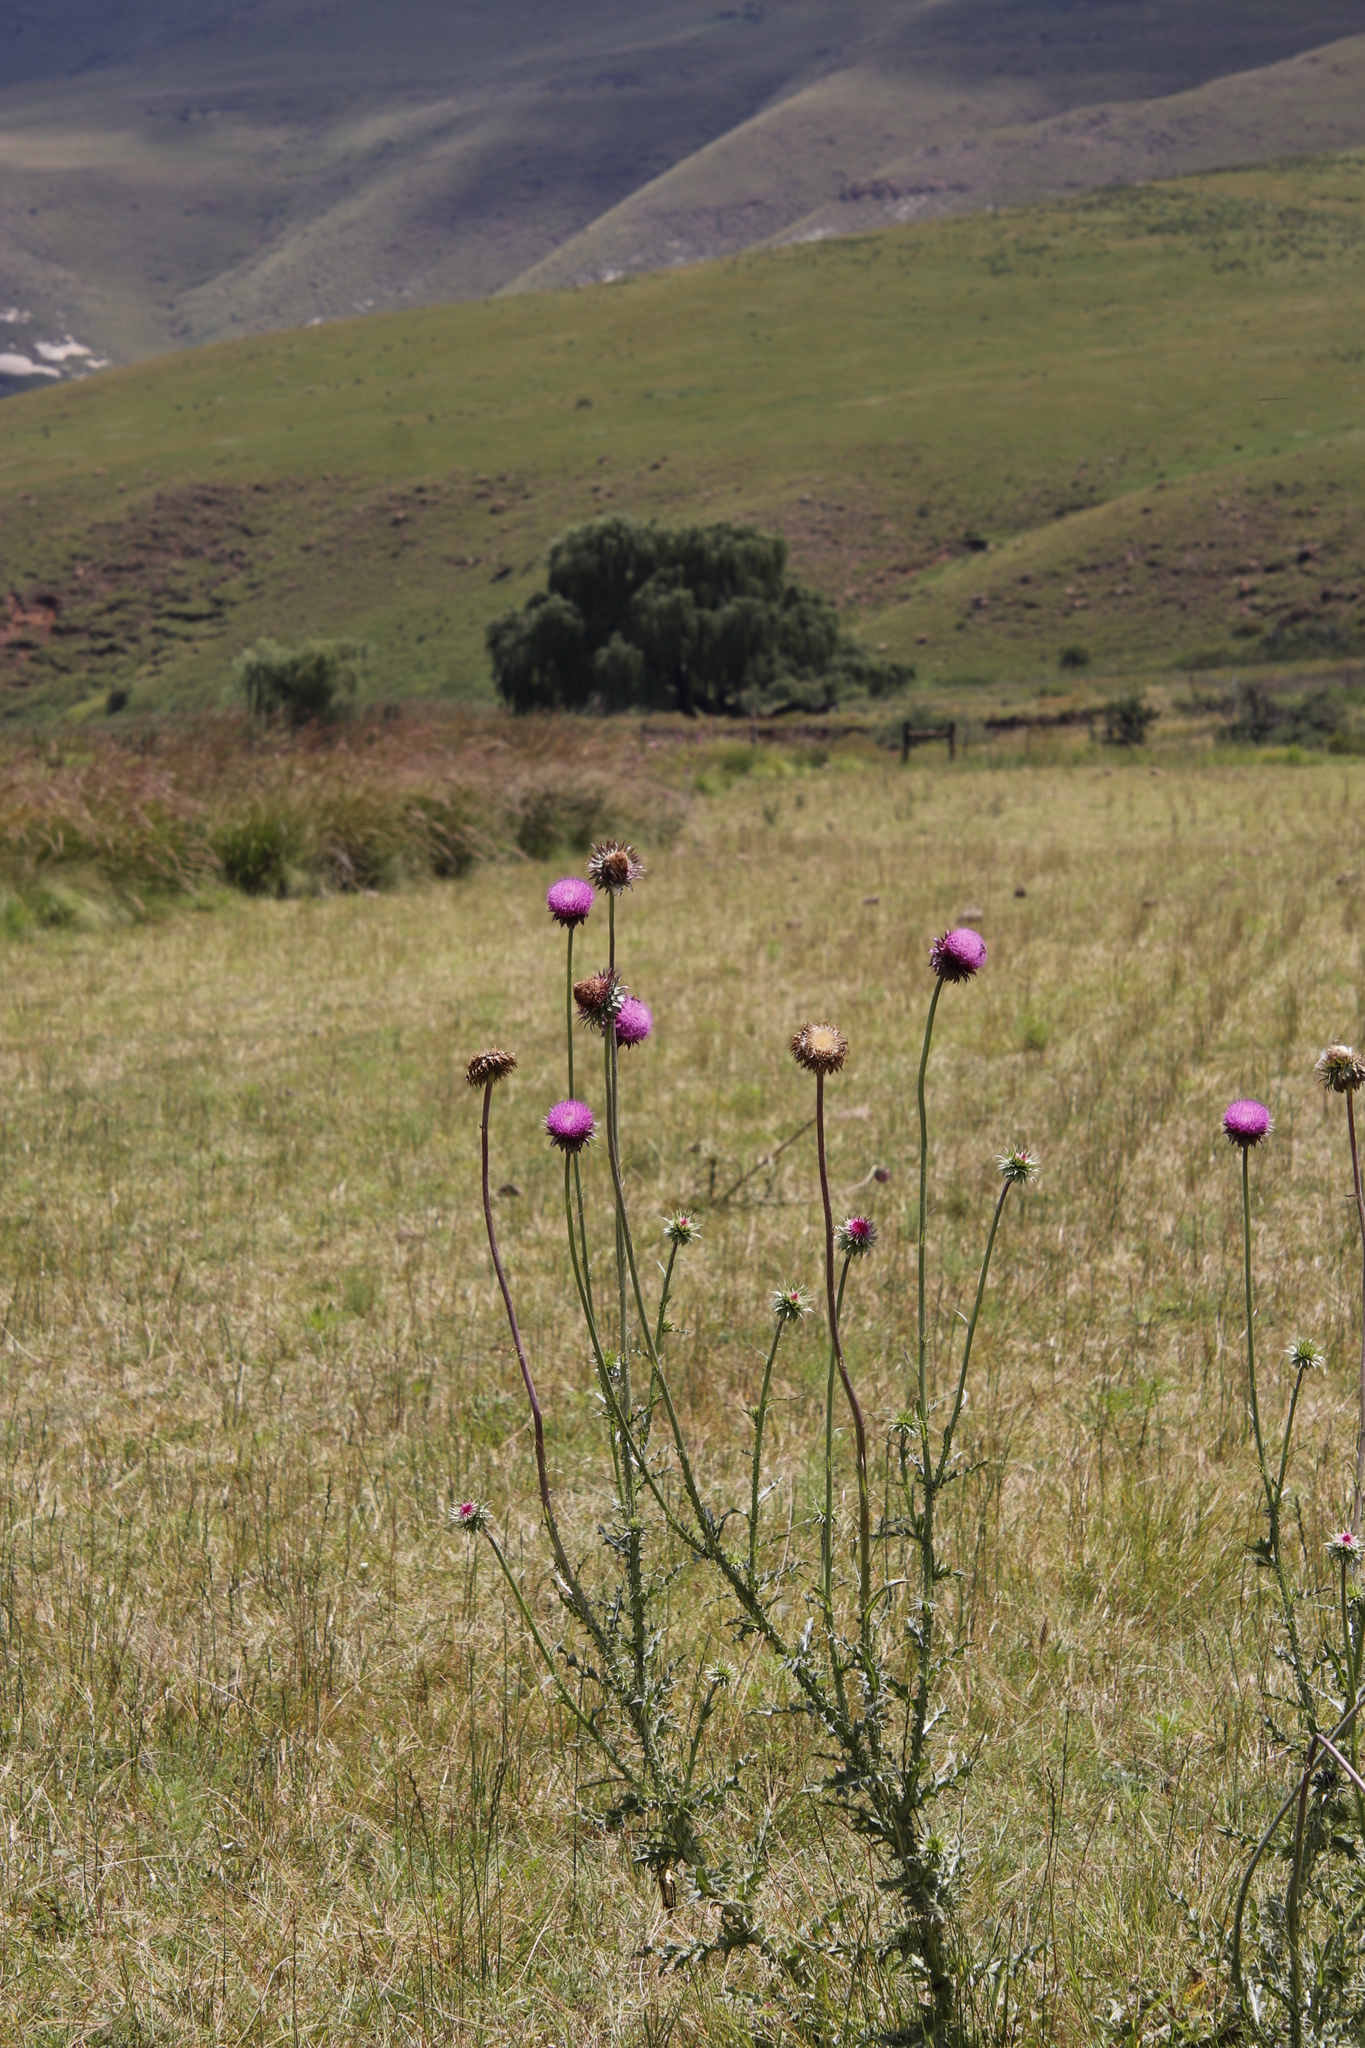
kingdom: Plantae
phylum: Tracheophyta
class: Magnoliopsida
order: Asterales
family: Asteraceae
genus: Carduus
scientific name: Carduus nutans
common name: Musk thistle
